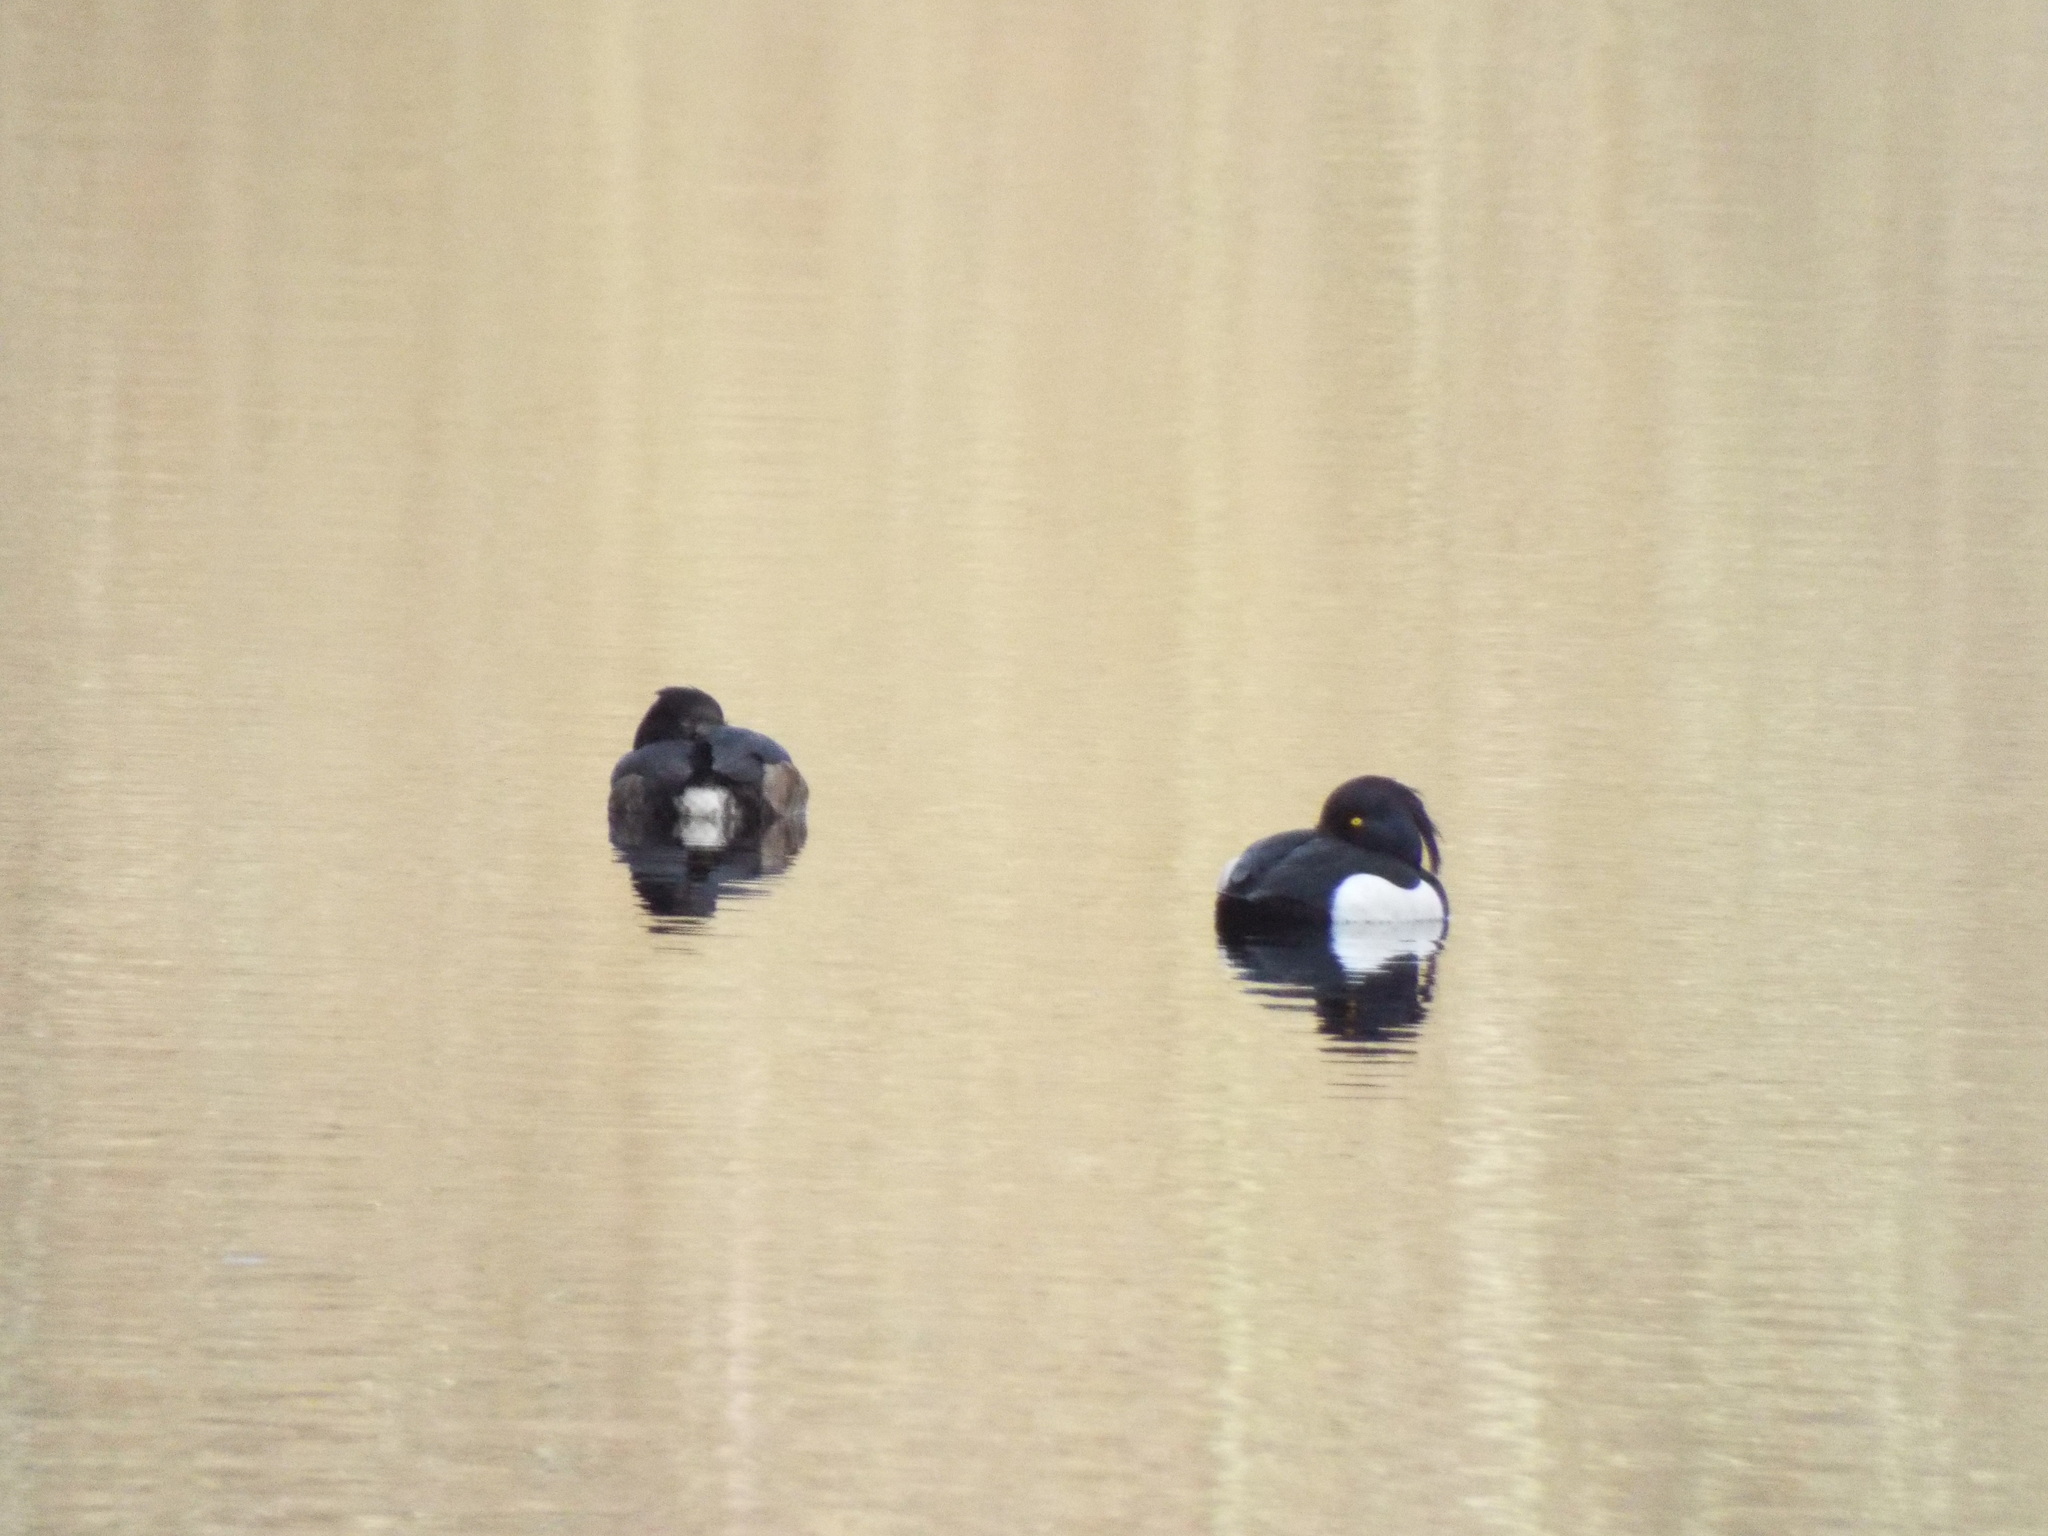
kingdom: Animalia
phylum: Chordata
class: Aves
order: Anseriformes
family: Anatidae
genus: Aythya
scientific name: Aythya fuligula
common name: Tufted duck
